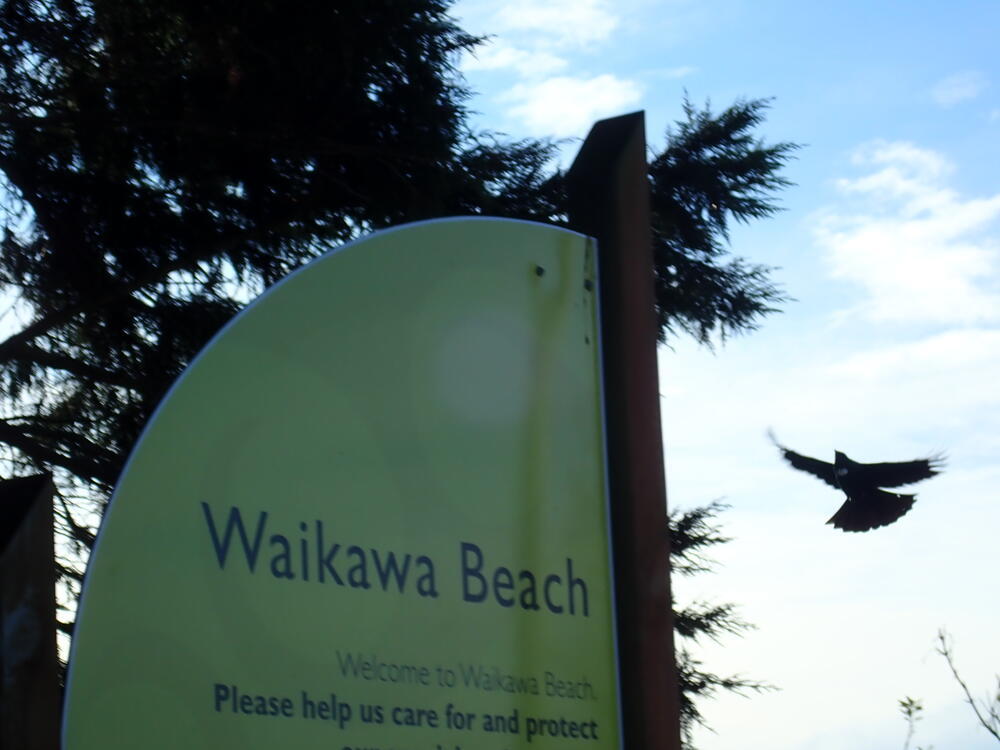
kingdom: Animalia
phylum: Chordata
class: Aves
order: Passeriformes
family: Meliphagidae
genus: Prosthemadera
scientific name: Prosthemadera novaeseelandiae
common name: Tui
